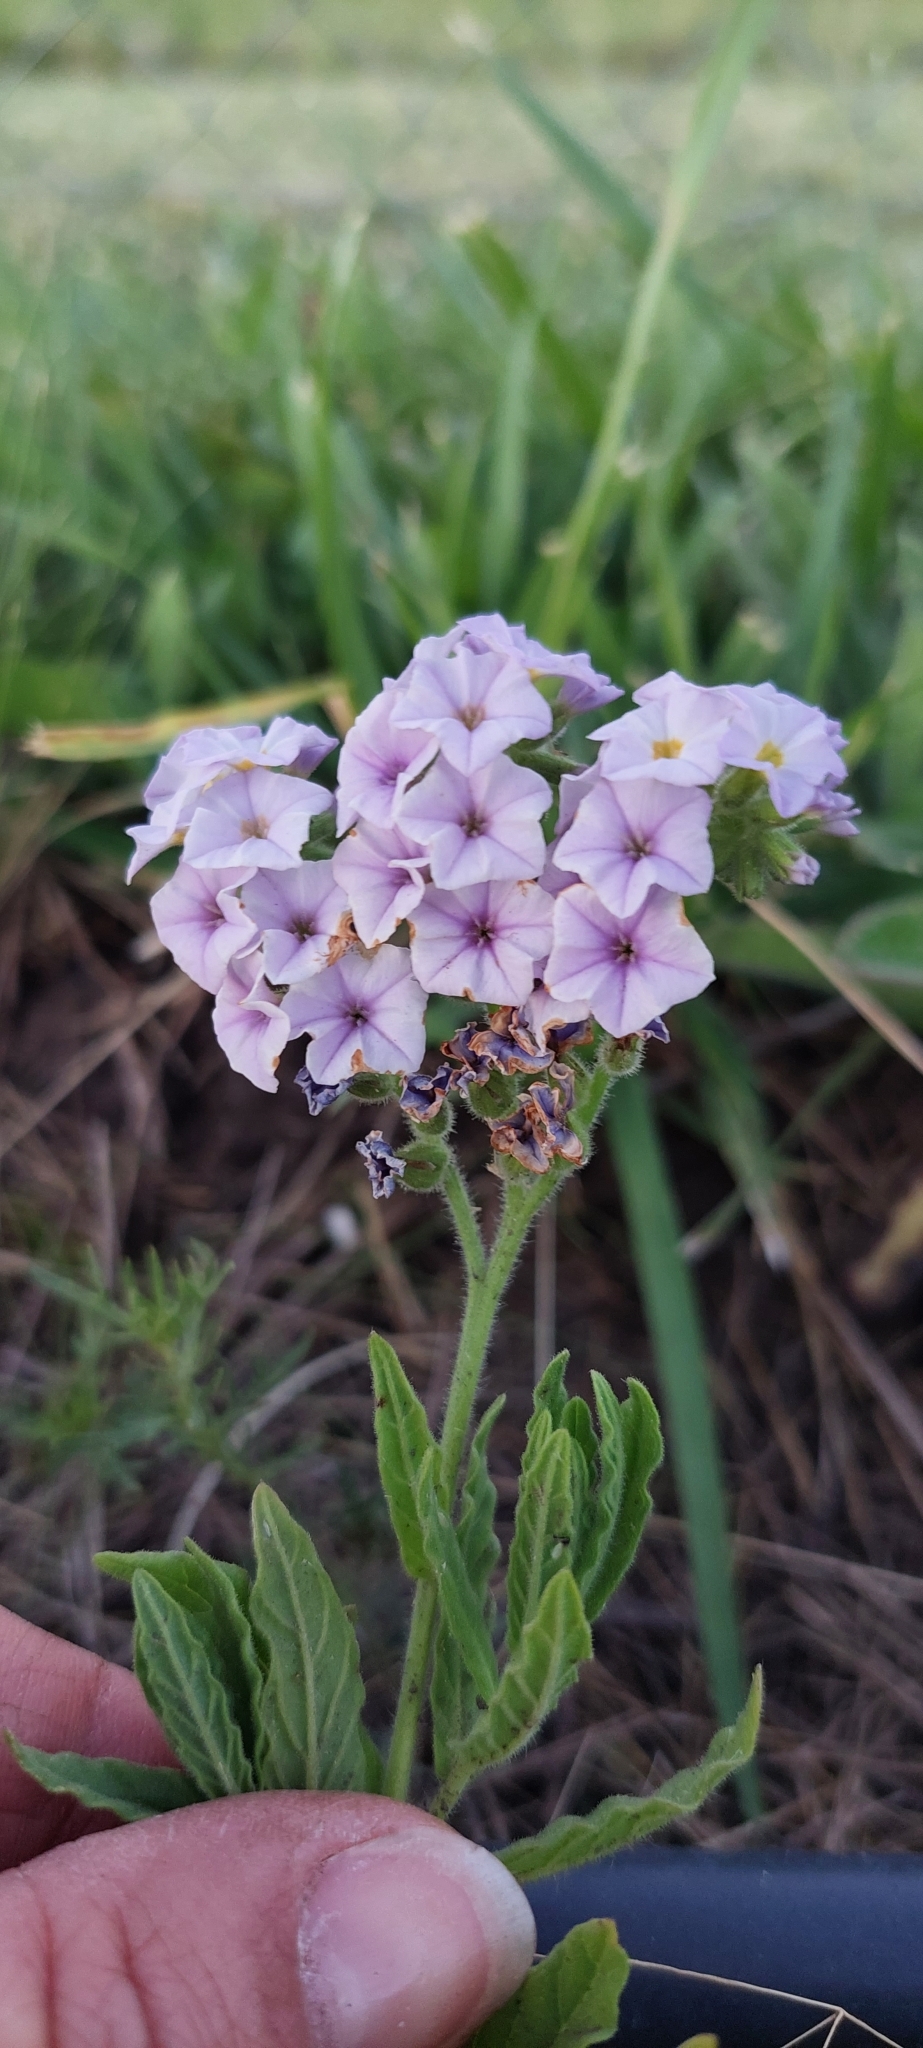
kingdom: Plantae
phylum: Tracheophyta
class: Magnoliopsida
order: Boraginales
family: Heliotropiaceae
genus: Heliotropium
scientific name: Heliotropium amplexicaule
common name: Clasping heliotrope
